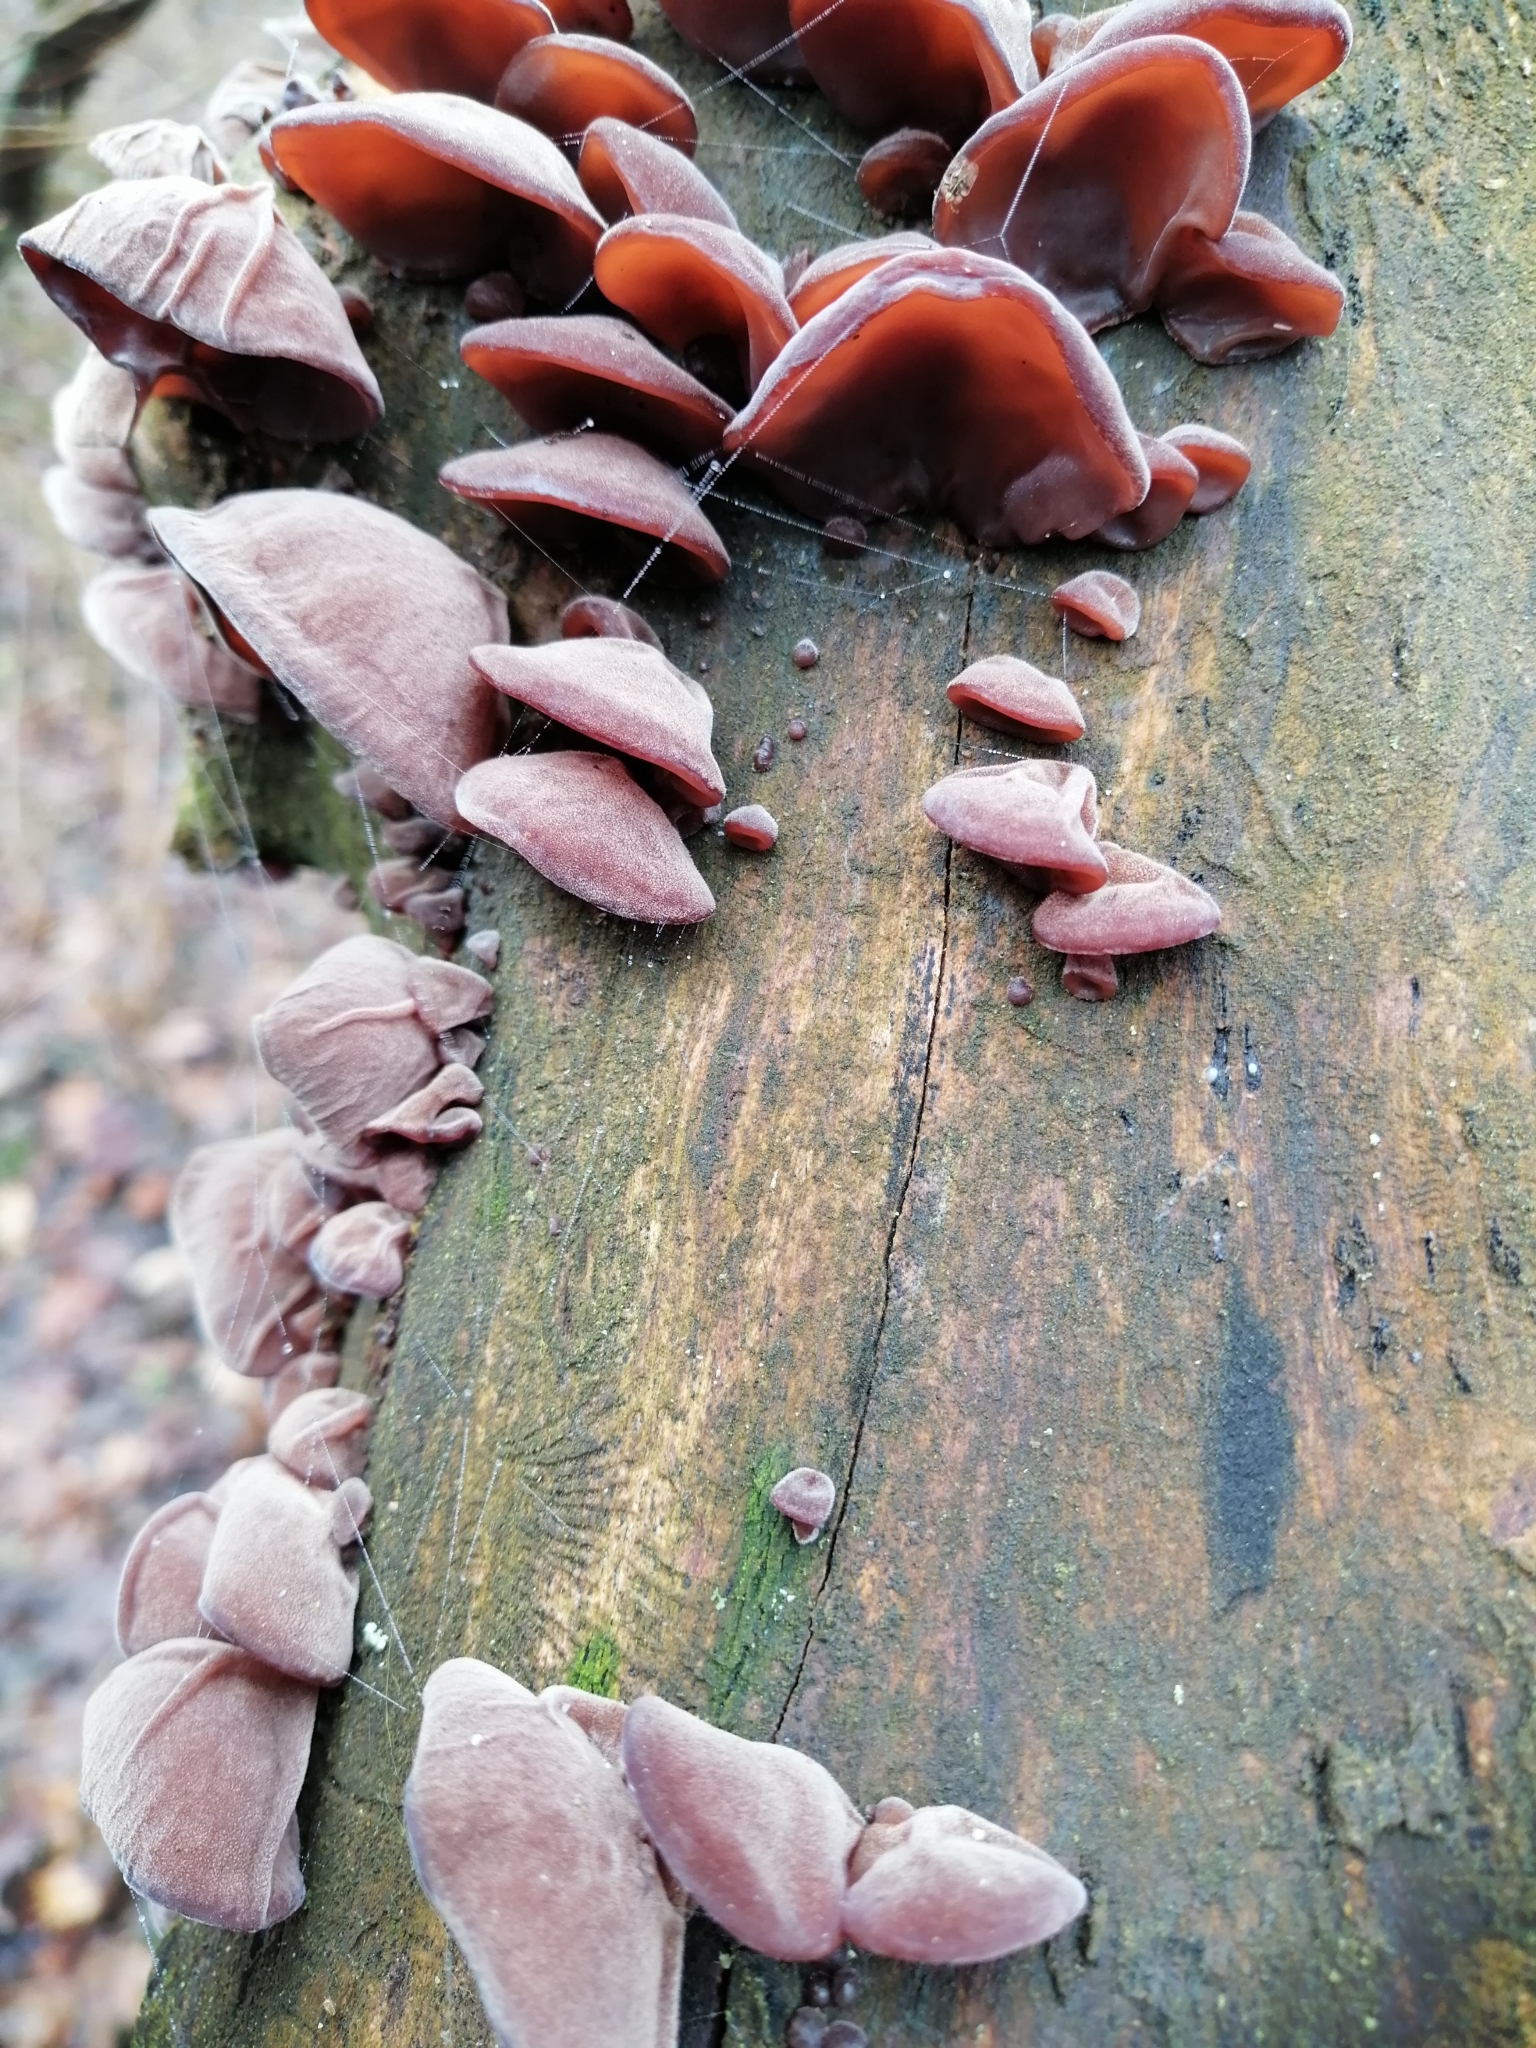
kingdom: Fungi
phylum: Basidiomycota
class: Agaricomycetes
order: Auriculariales
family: Auriculariaceae
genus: Auricularia
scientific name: Auricularia auricula-judae
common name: Jelly ear
